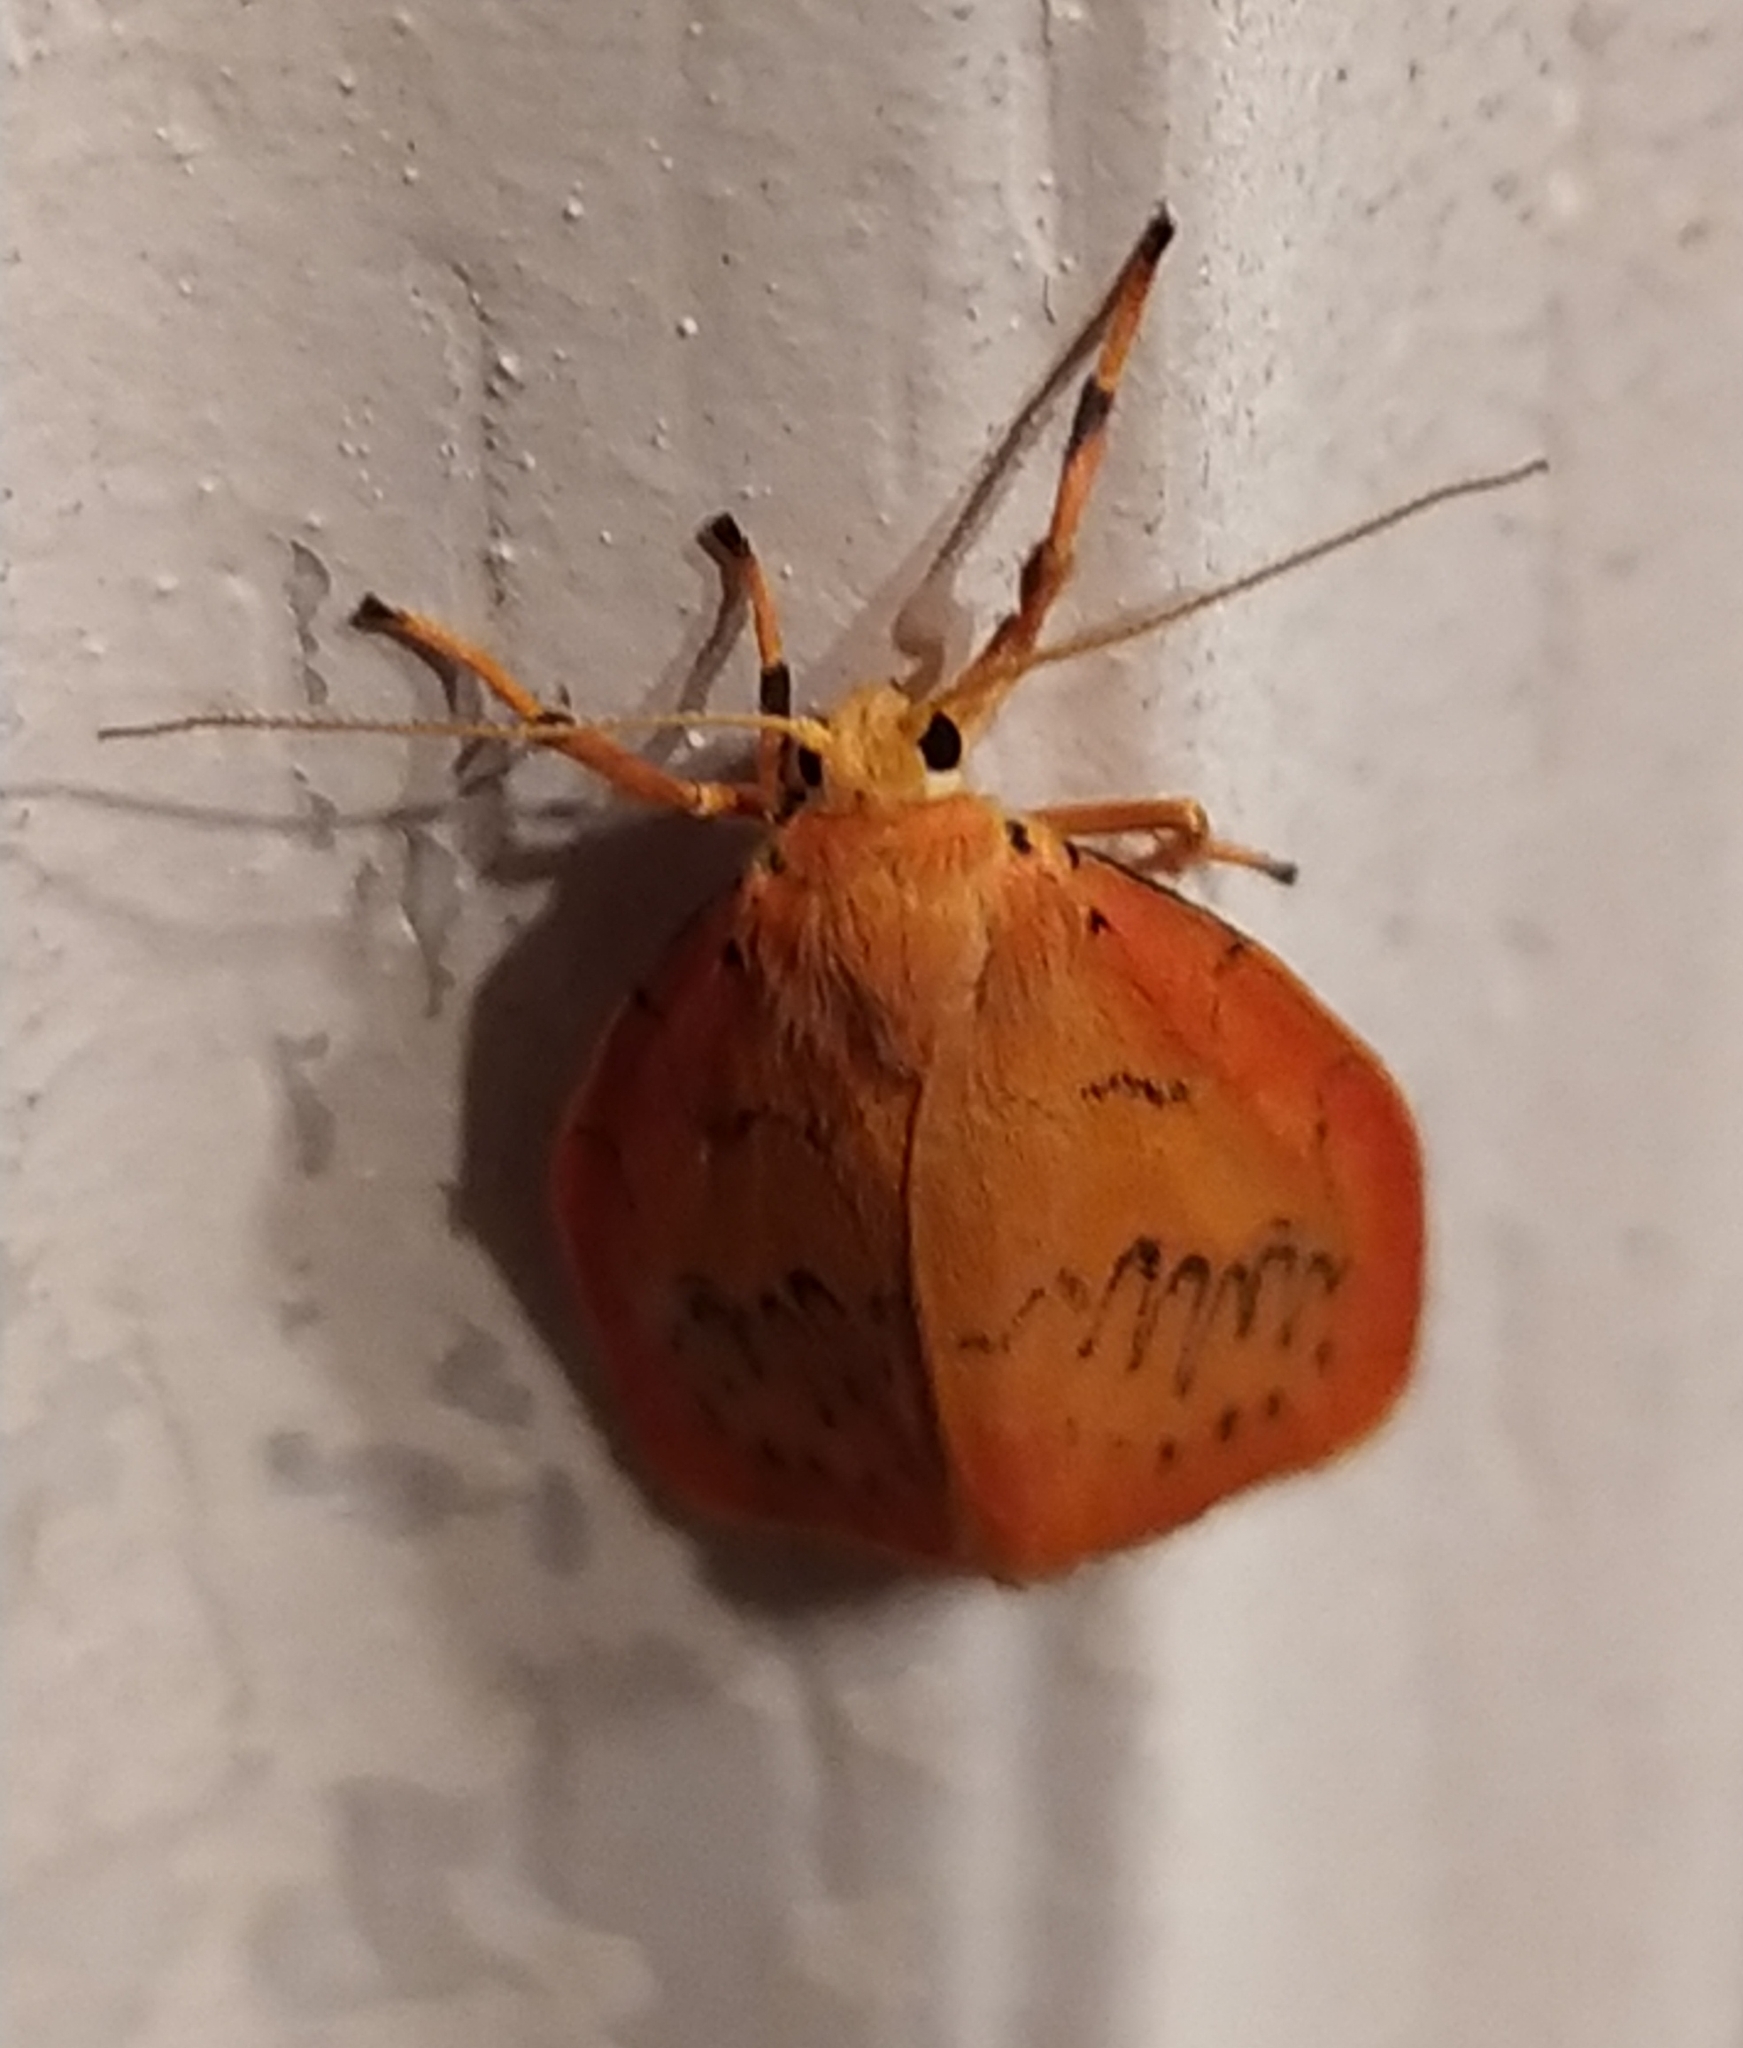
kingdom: Animalia
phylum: Arthropoda
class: Insecta
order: Lepidoptera
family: Erebidae
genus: Miltochrista
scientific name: Miltochrista miniata
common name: Rosy footman
